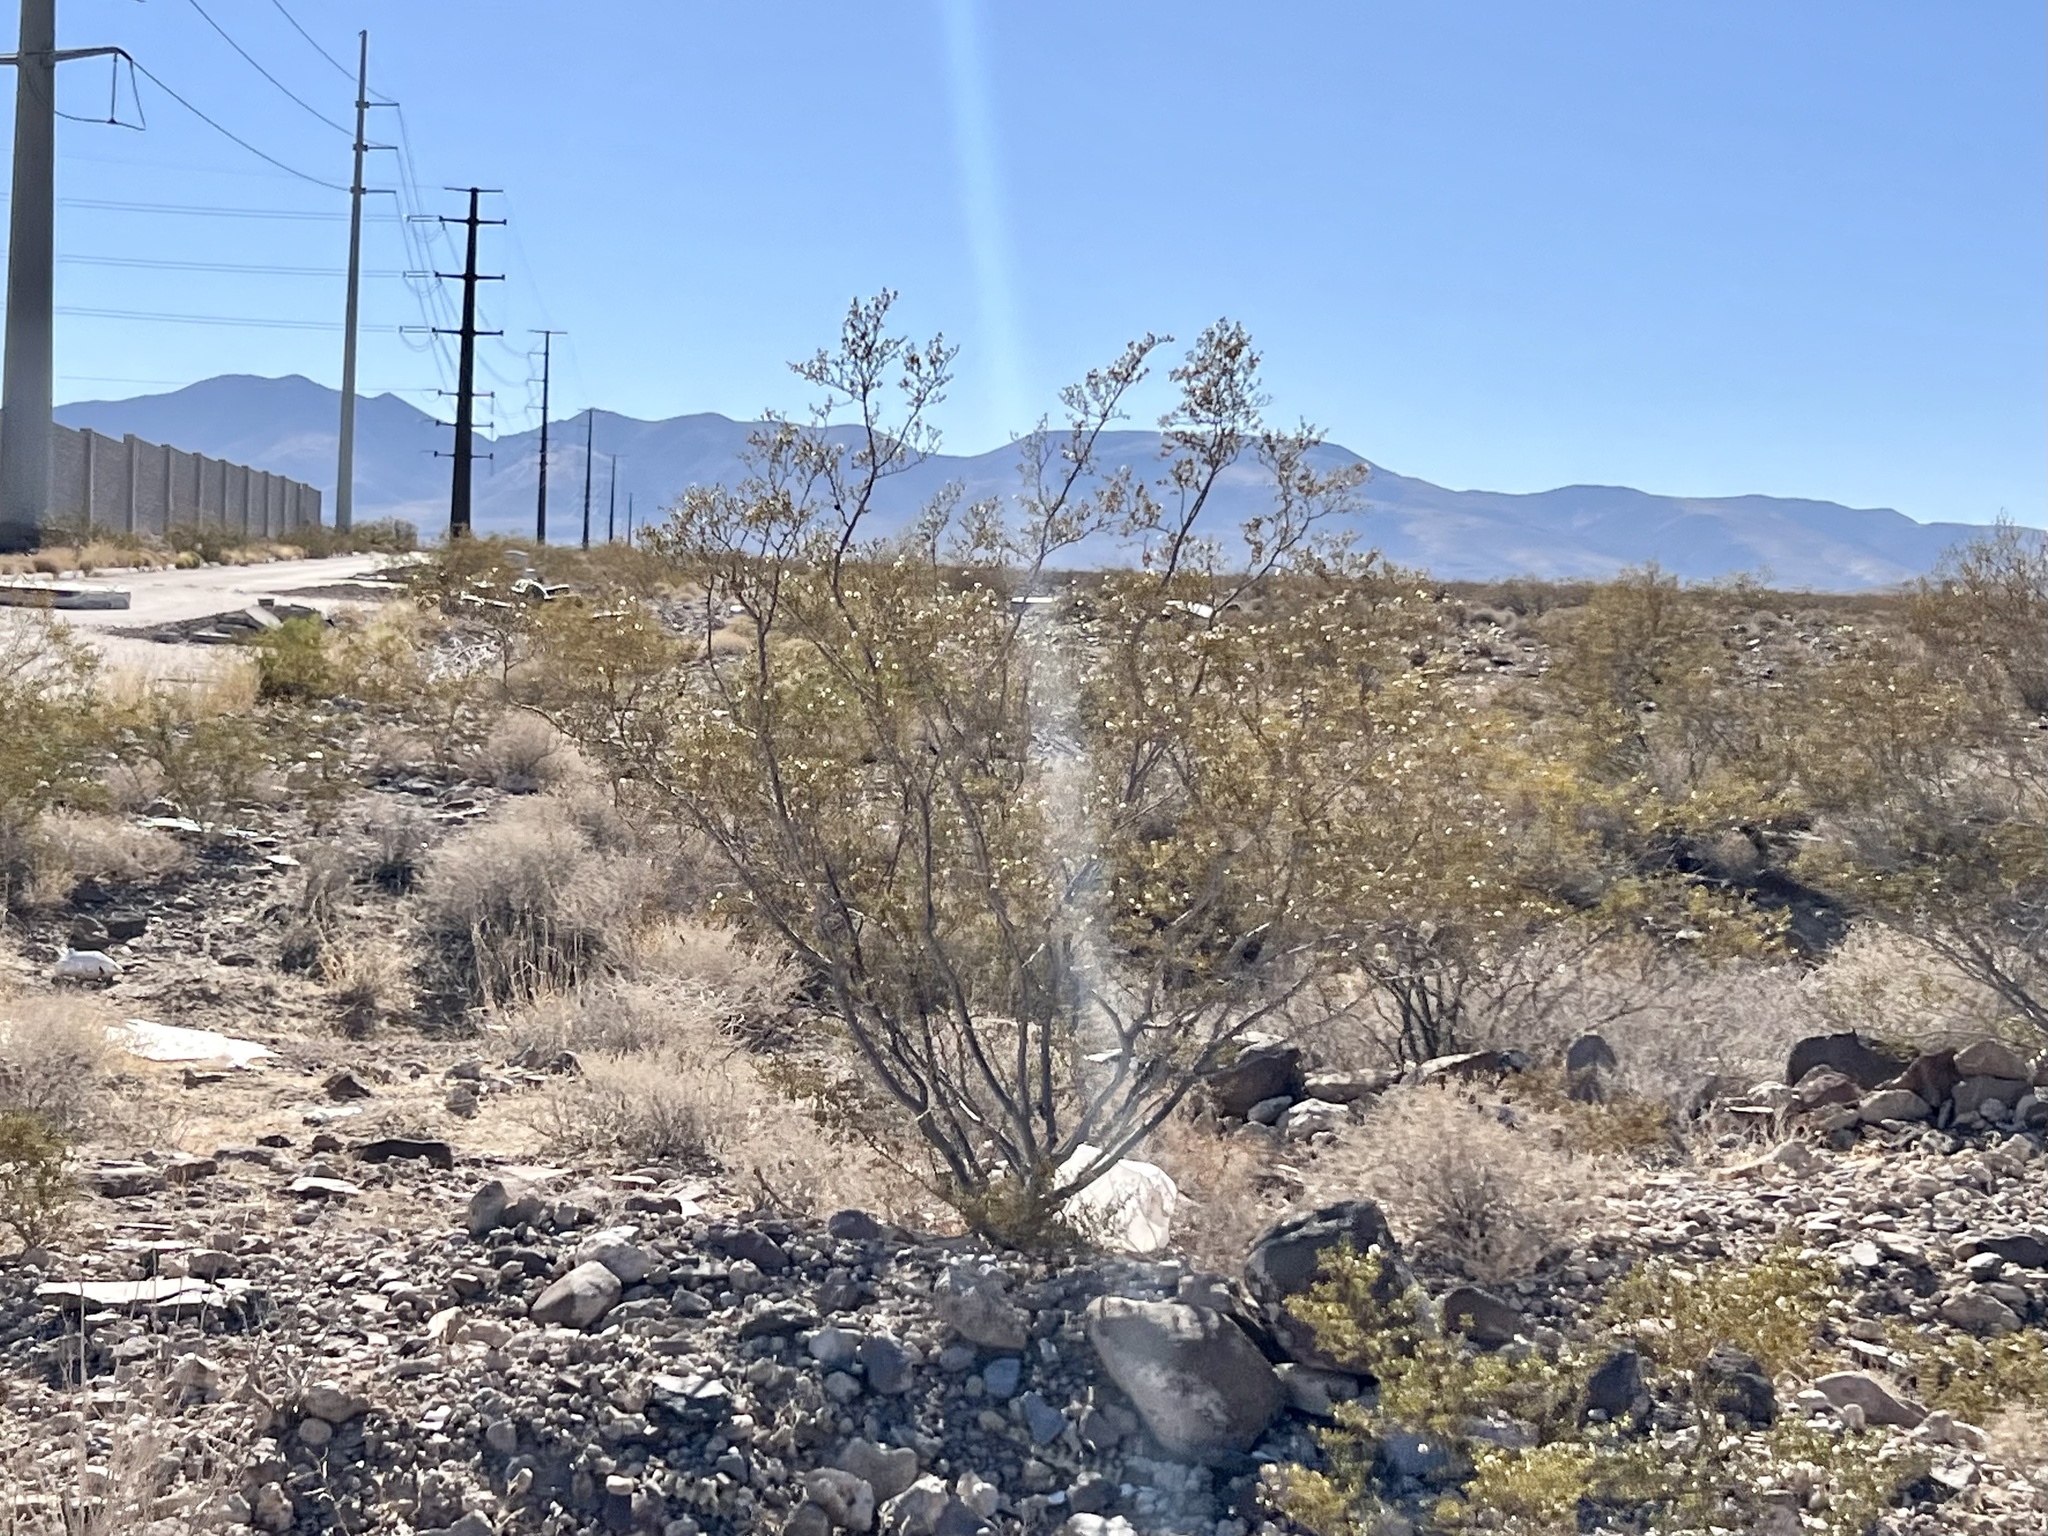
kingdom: Plantae
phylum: Tracheophyta
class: Magnoliopsida
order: Zygophyllales
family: Zygophyllaceae
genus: Larrea
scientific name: Larrea tridentata
